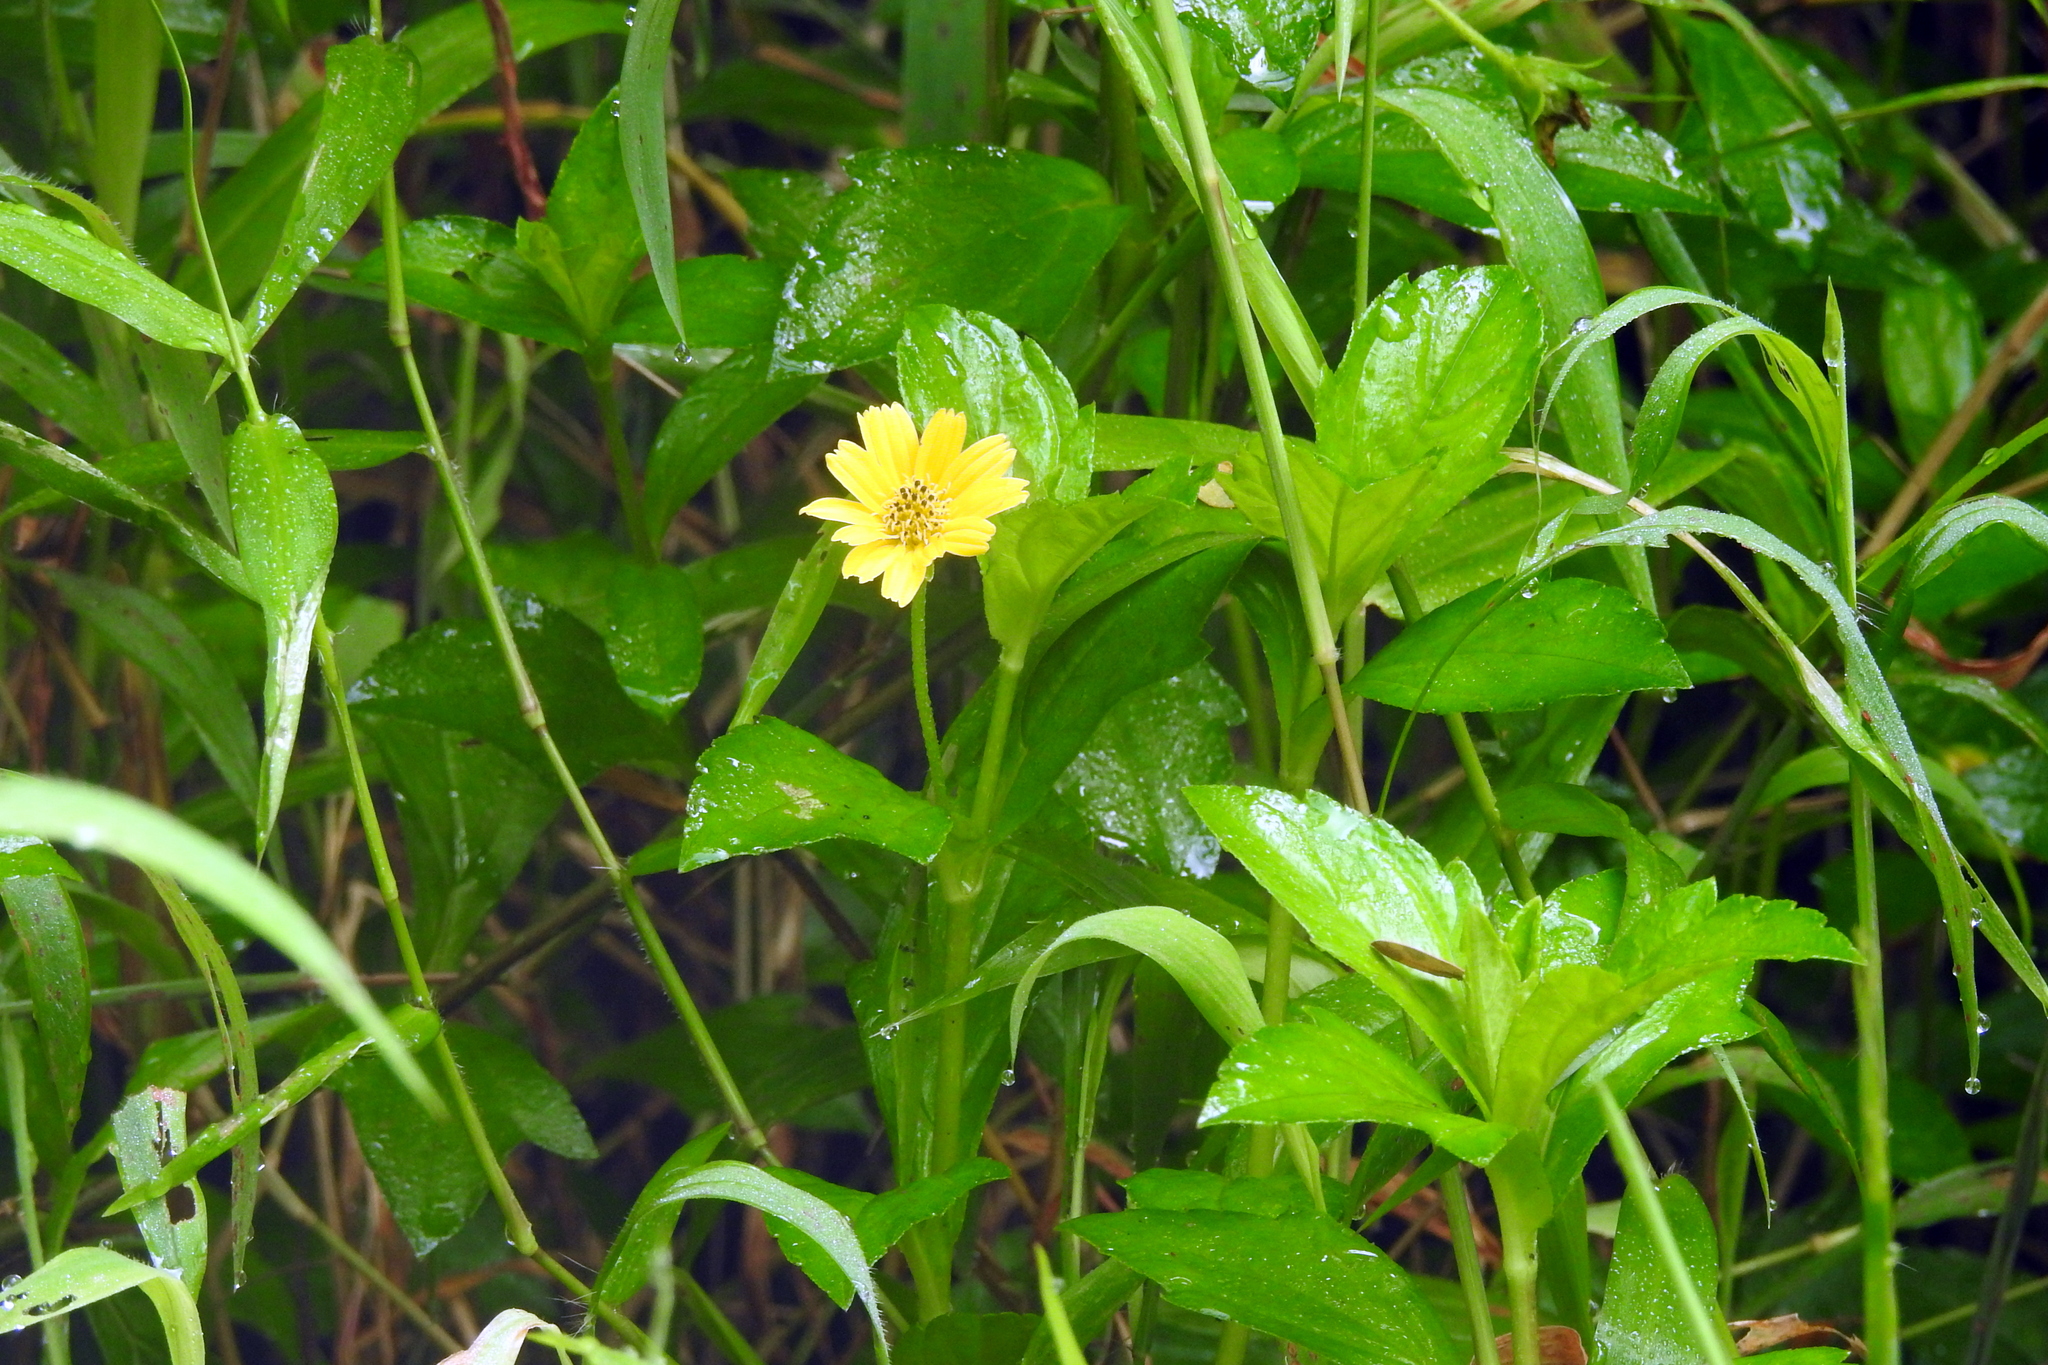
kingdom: Plantae
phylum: Tracheophyta
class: Magnoliopsida
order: Asterales
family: Asteraceae
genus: Sphagneticola
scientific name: Sphagneticola trilobata
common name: Bay biscayne creeping-oxeye
